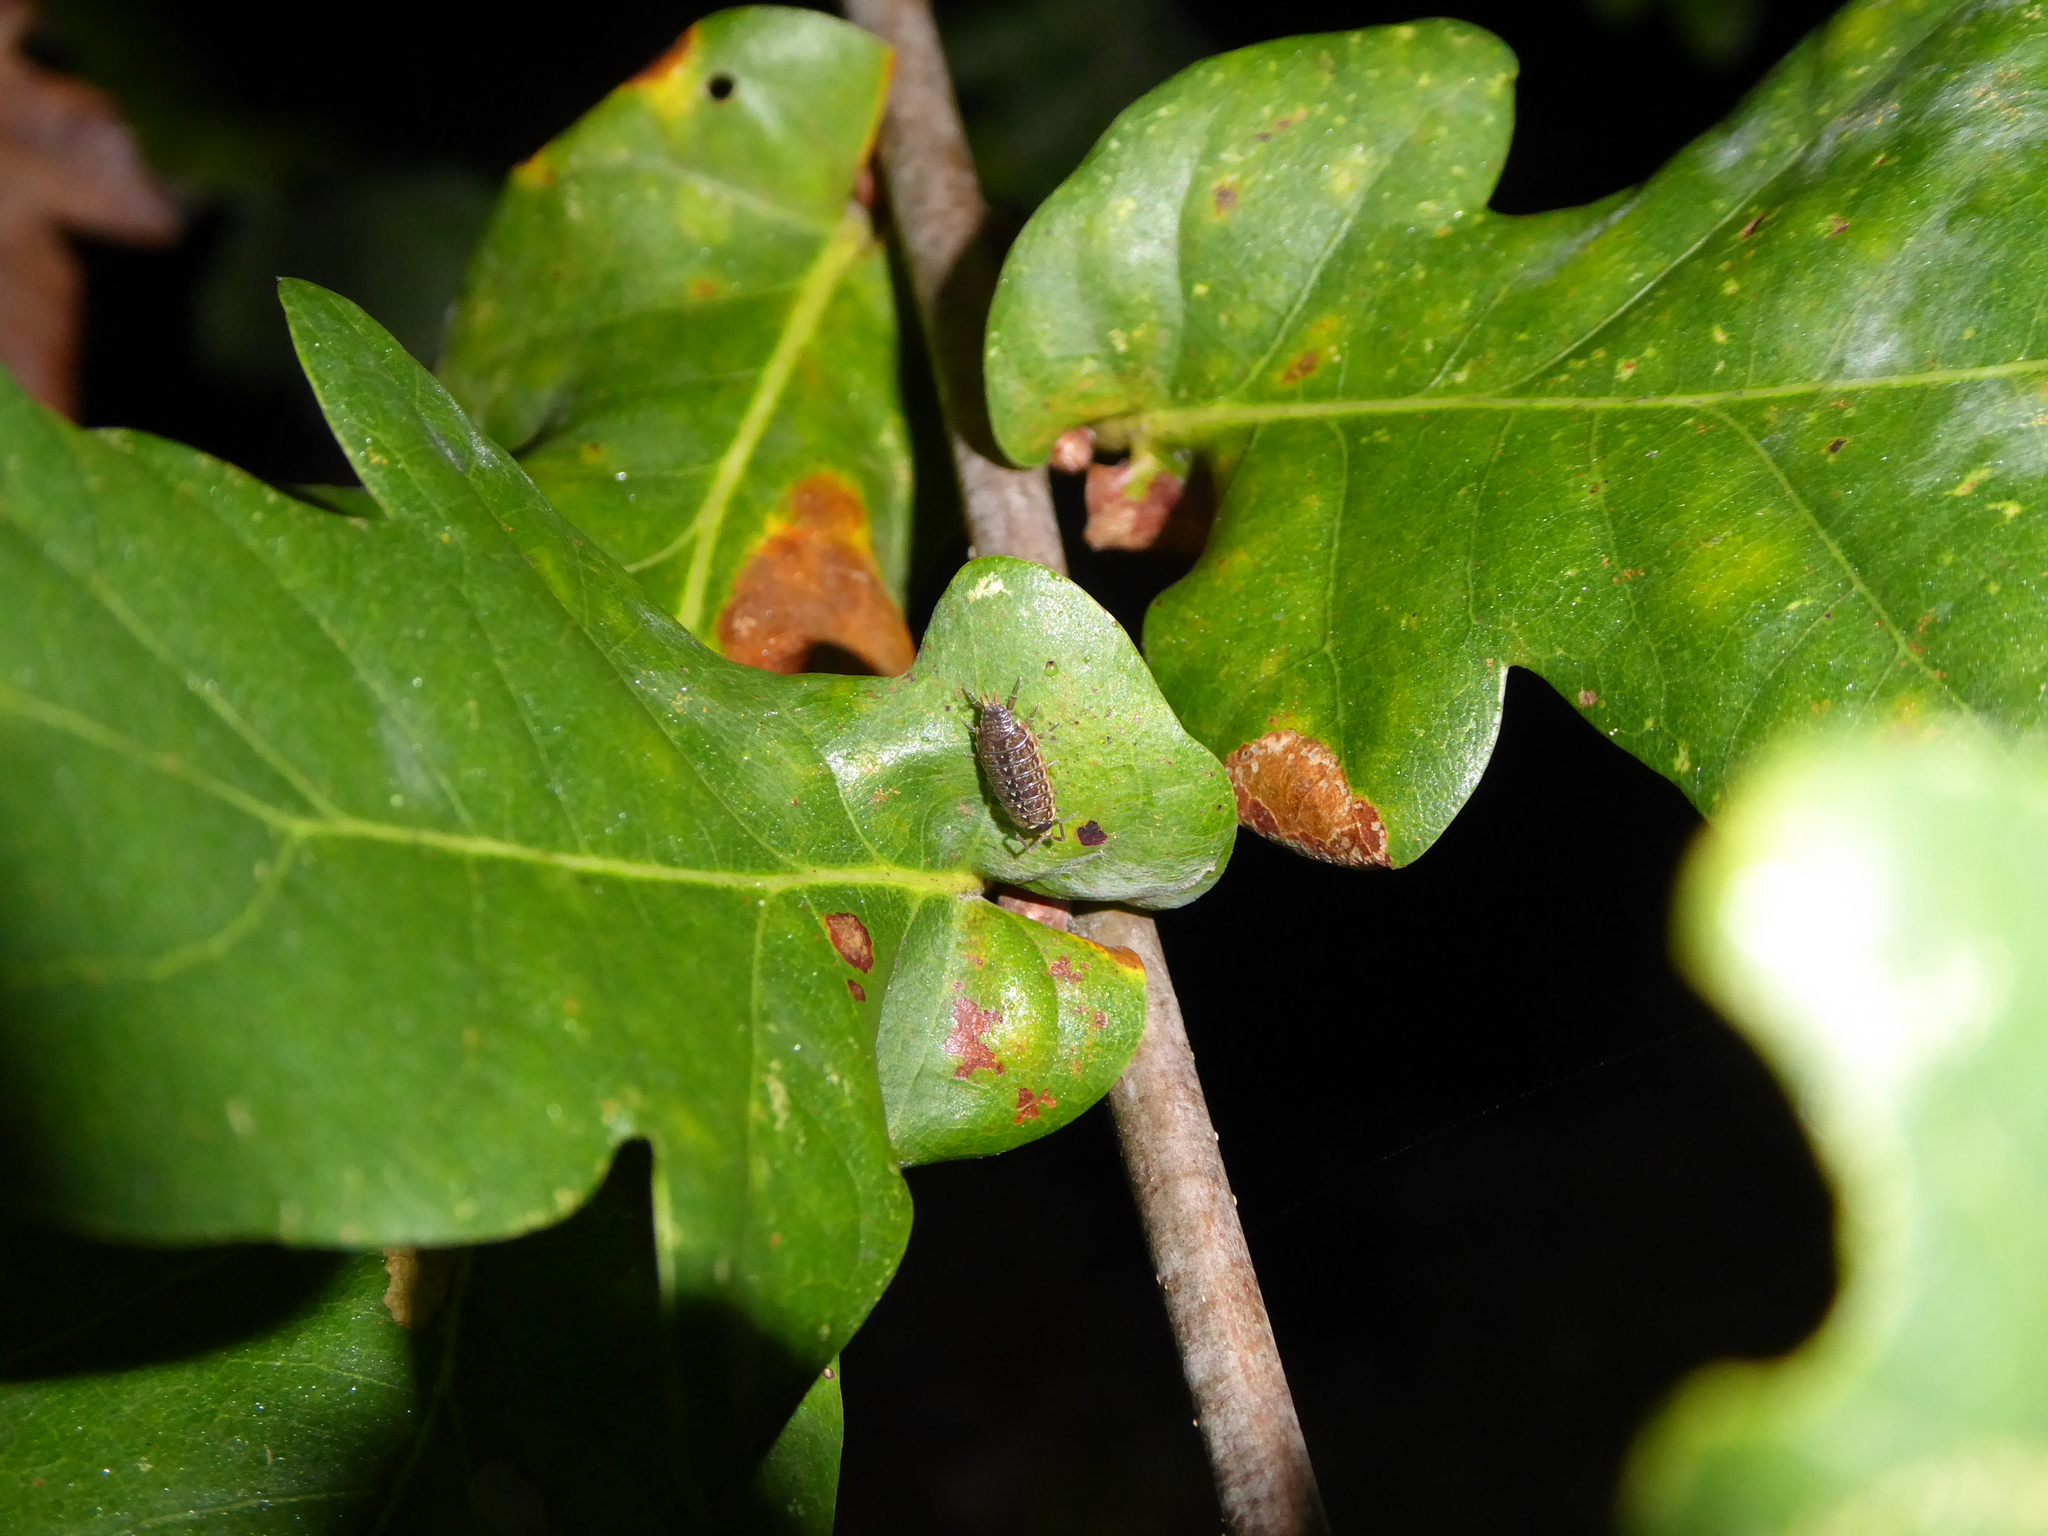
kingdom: Animalia
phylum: Arthropoda
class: Malacostraca
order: Isopoda
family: Philosciidae
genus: Philoscia
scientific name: Philoscia muscorum
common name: Common striped woodlouse
